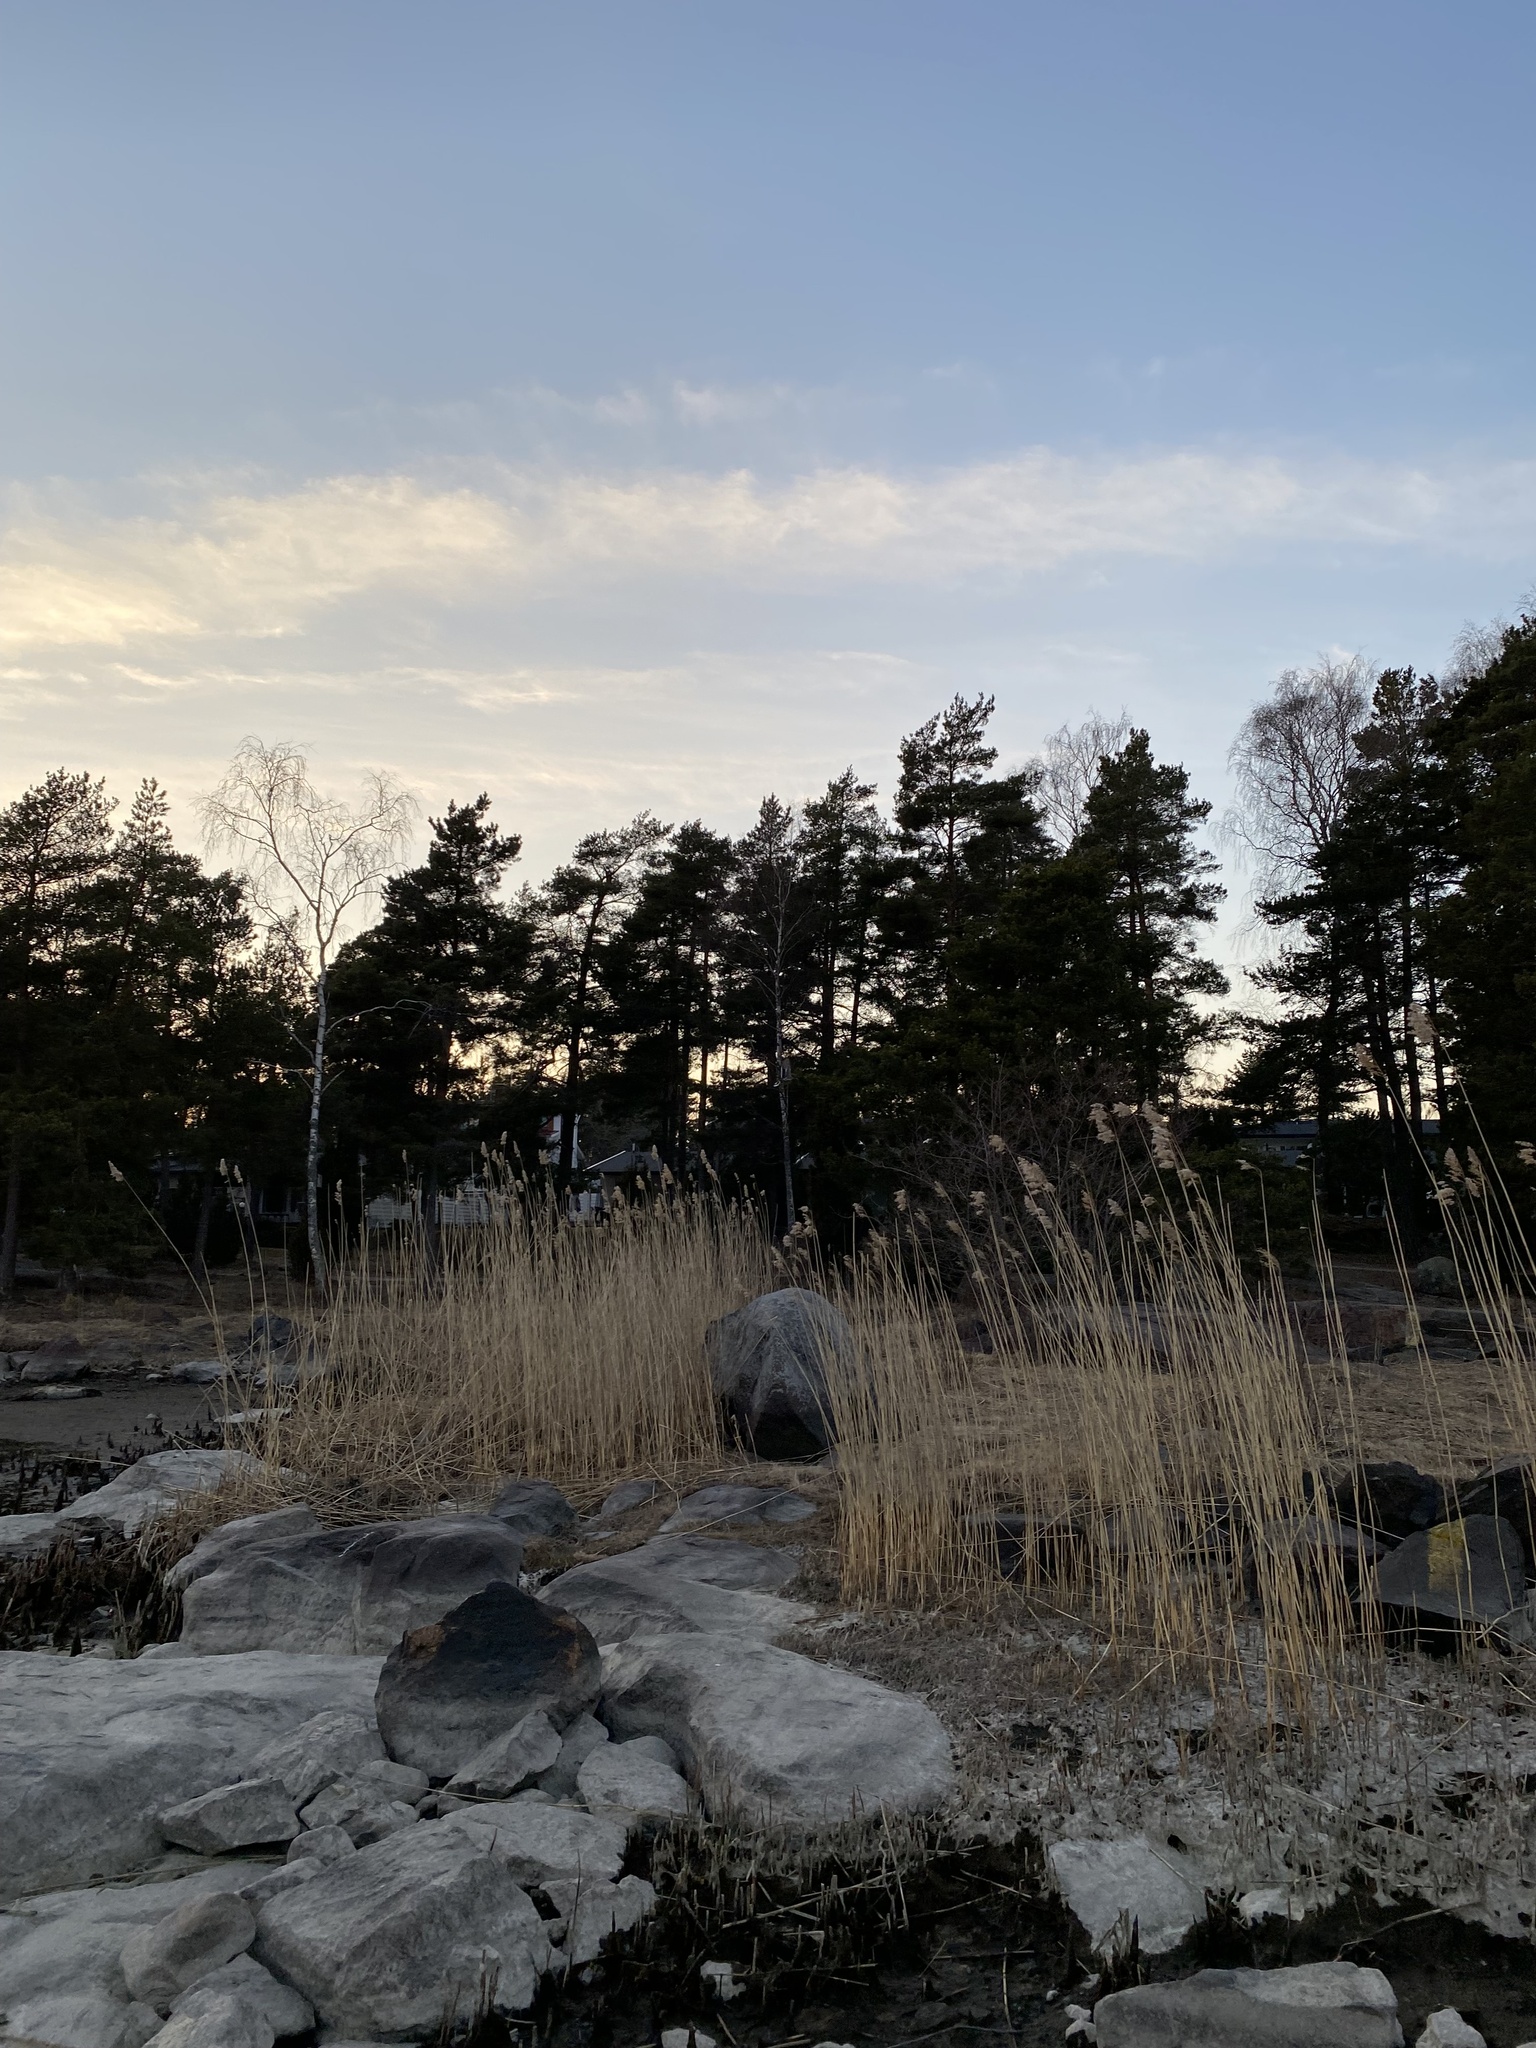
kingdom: Plantae
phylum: Tracheophyta
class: Liliopsida
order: Poales
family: Poaceae
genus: Phragmites
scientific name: Phragmites australis
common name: Common reed
